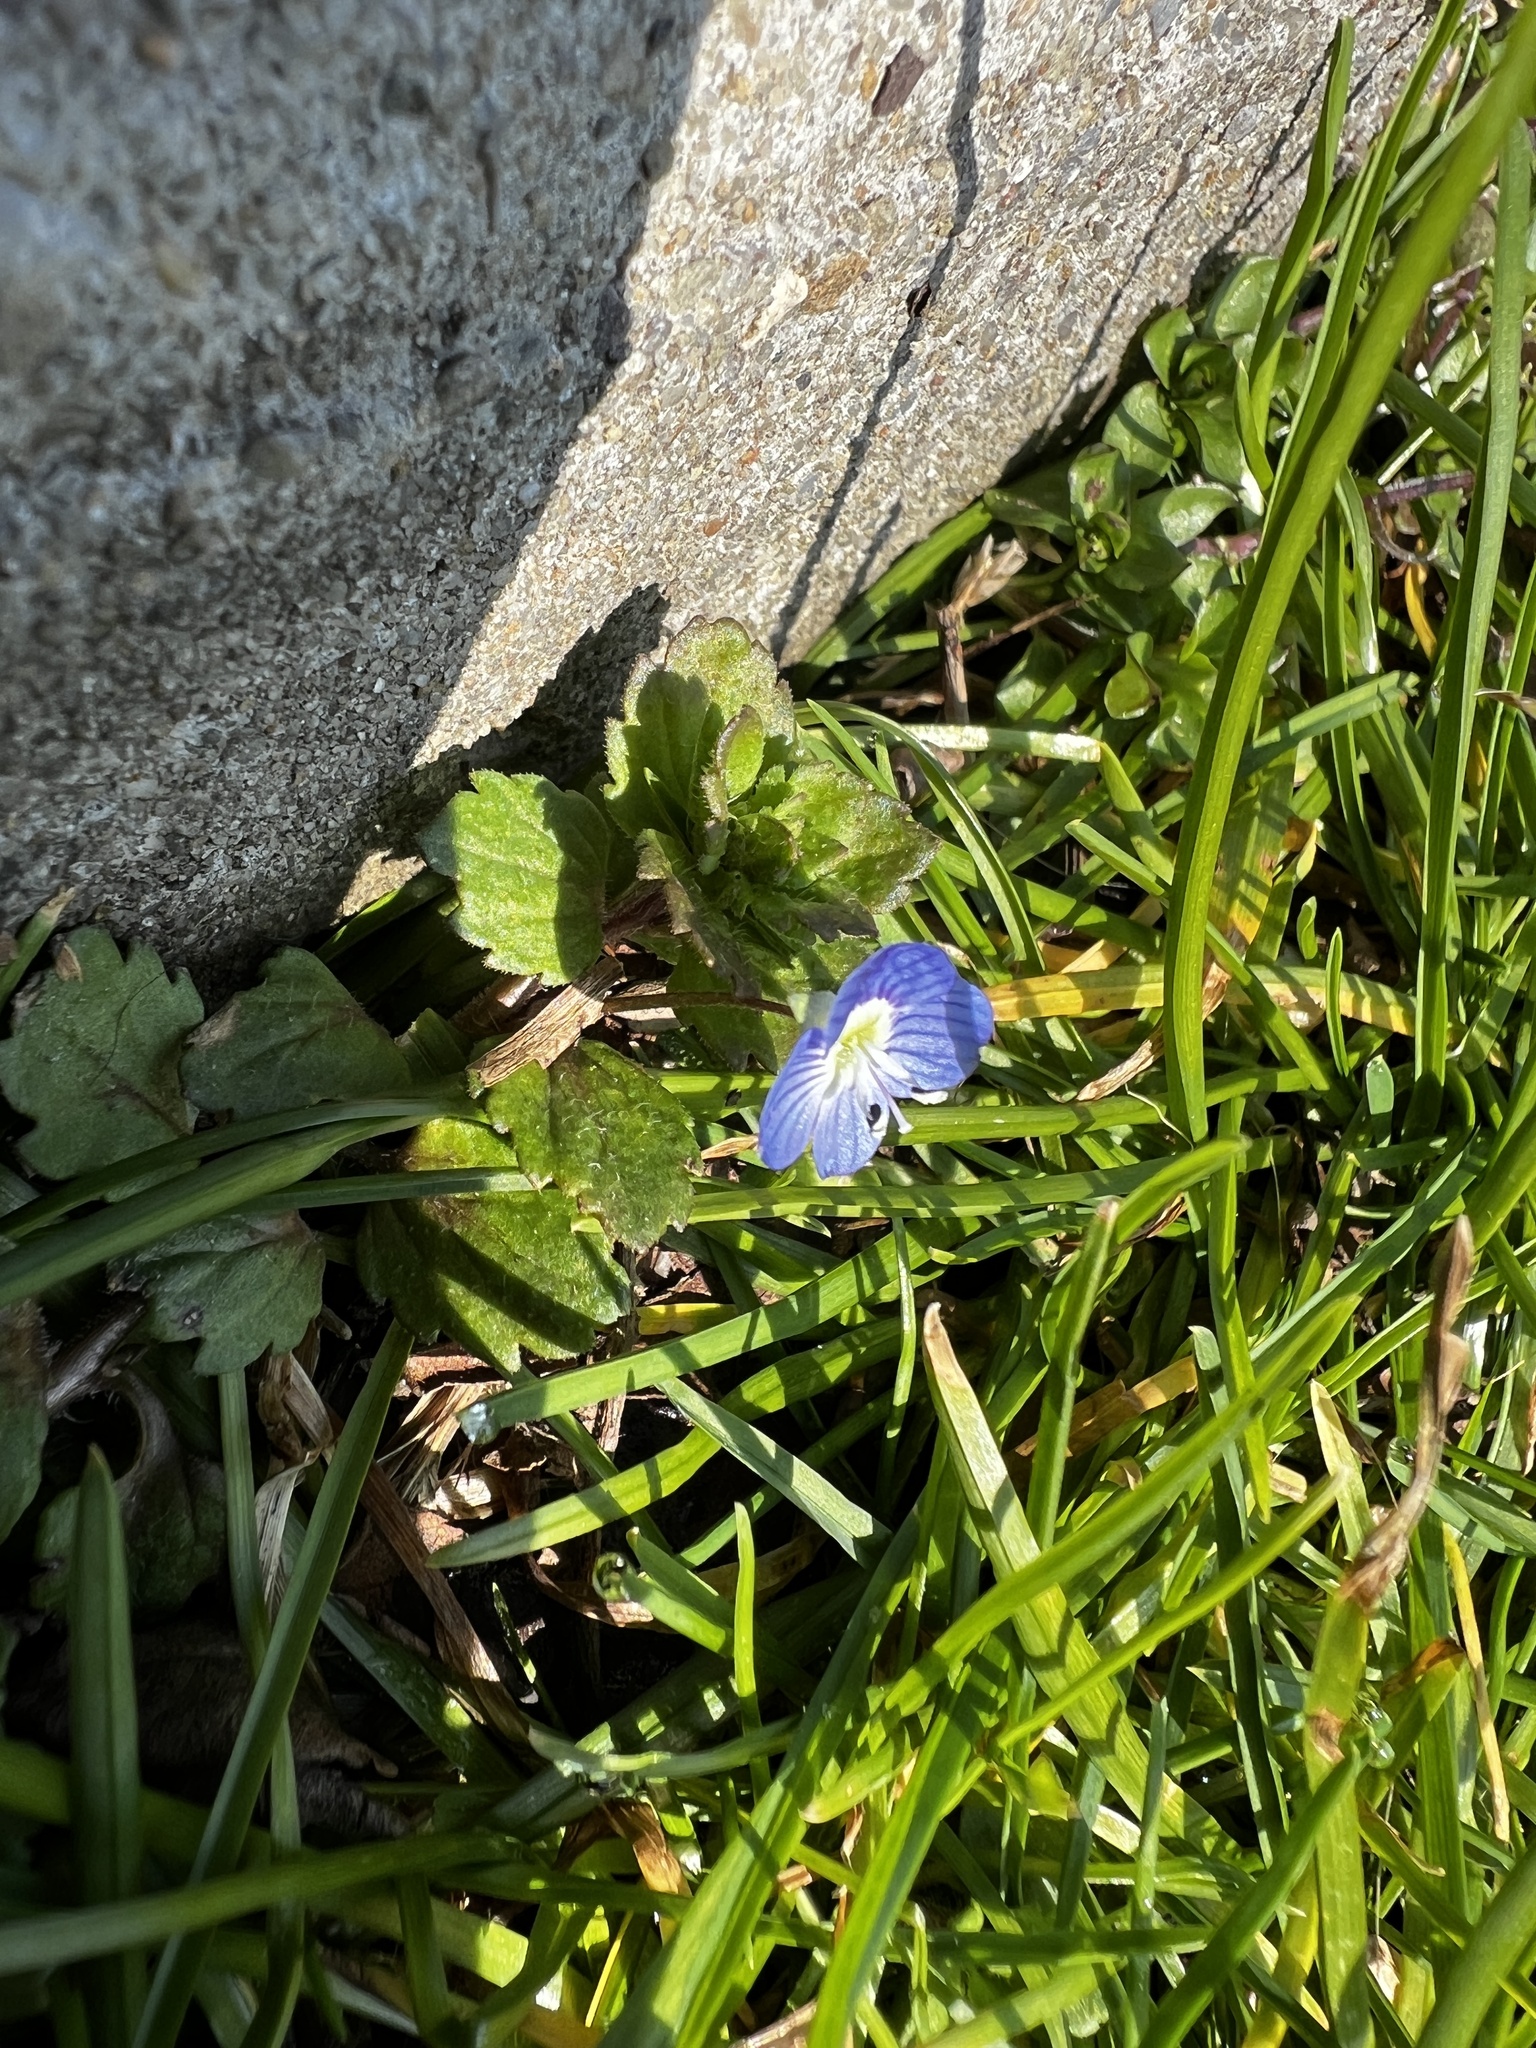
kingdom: Plantae
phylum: Tracheophyta
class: Magnoliopsida
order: Lamiales
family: Plantaginaceae
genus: Veronica
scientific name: Veronica persica
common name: Common field-speedwell
